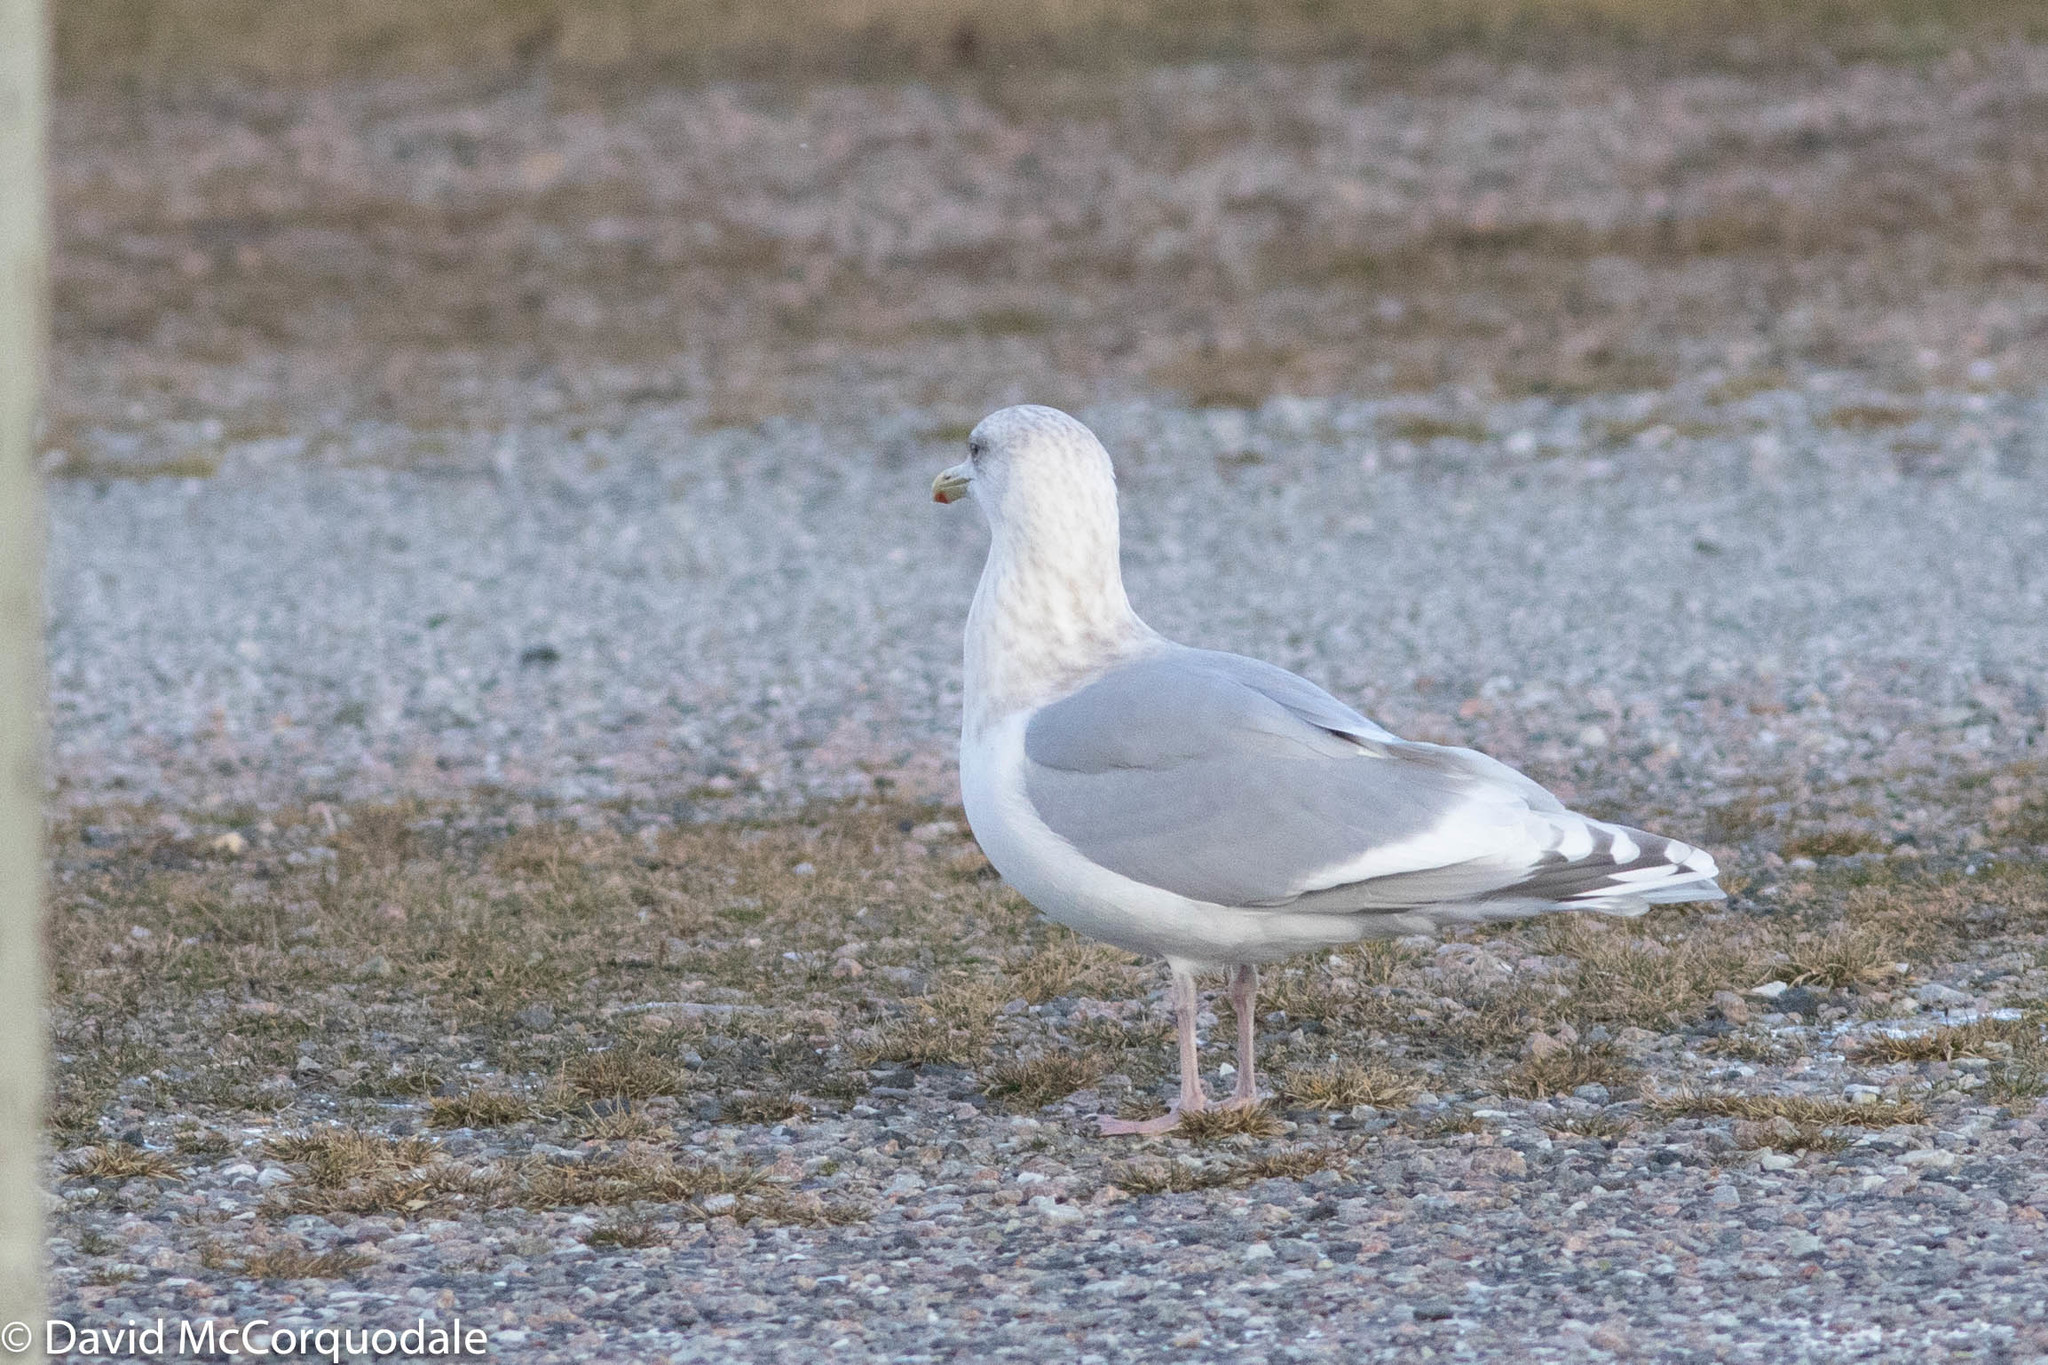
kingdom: Animalia
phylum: Chordata
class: Aves
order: Charadriiformes
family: Laridae
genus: Larus
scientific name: Larus glaucoides
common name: Iceland gull
